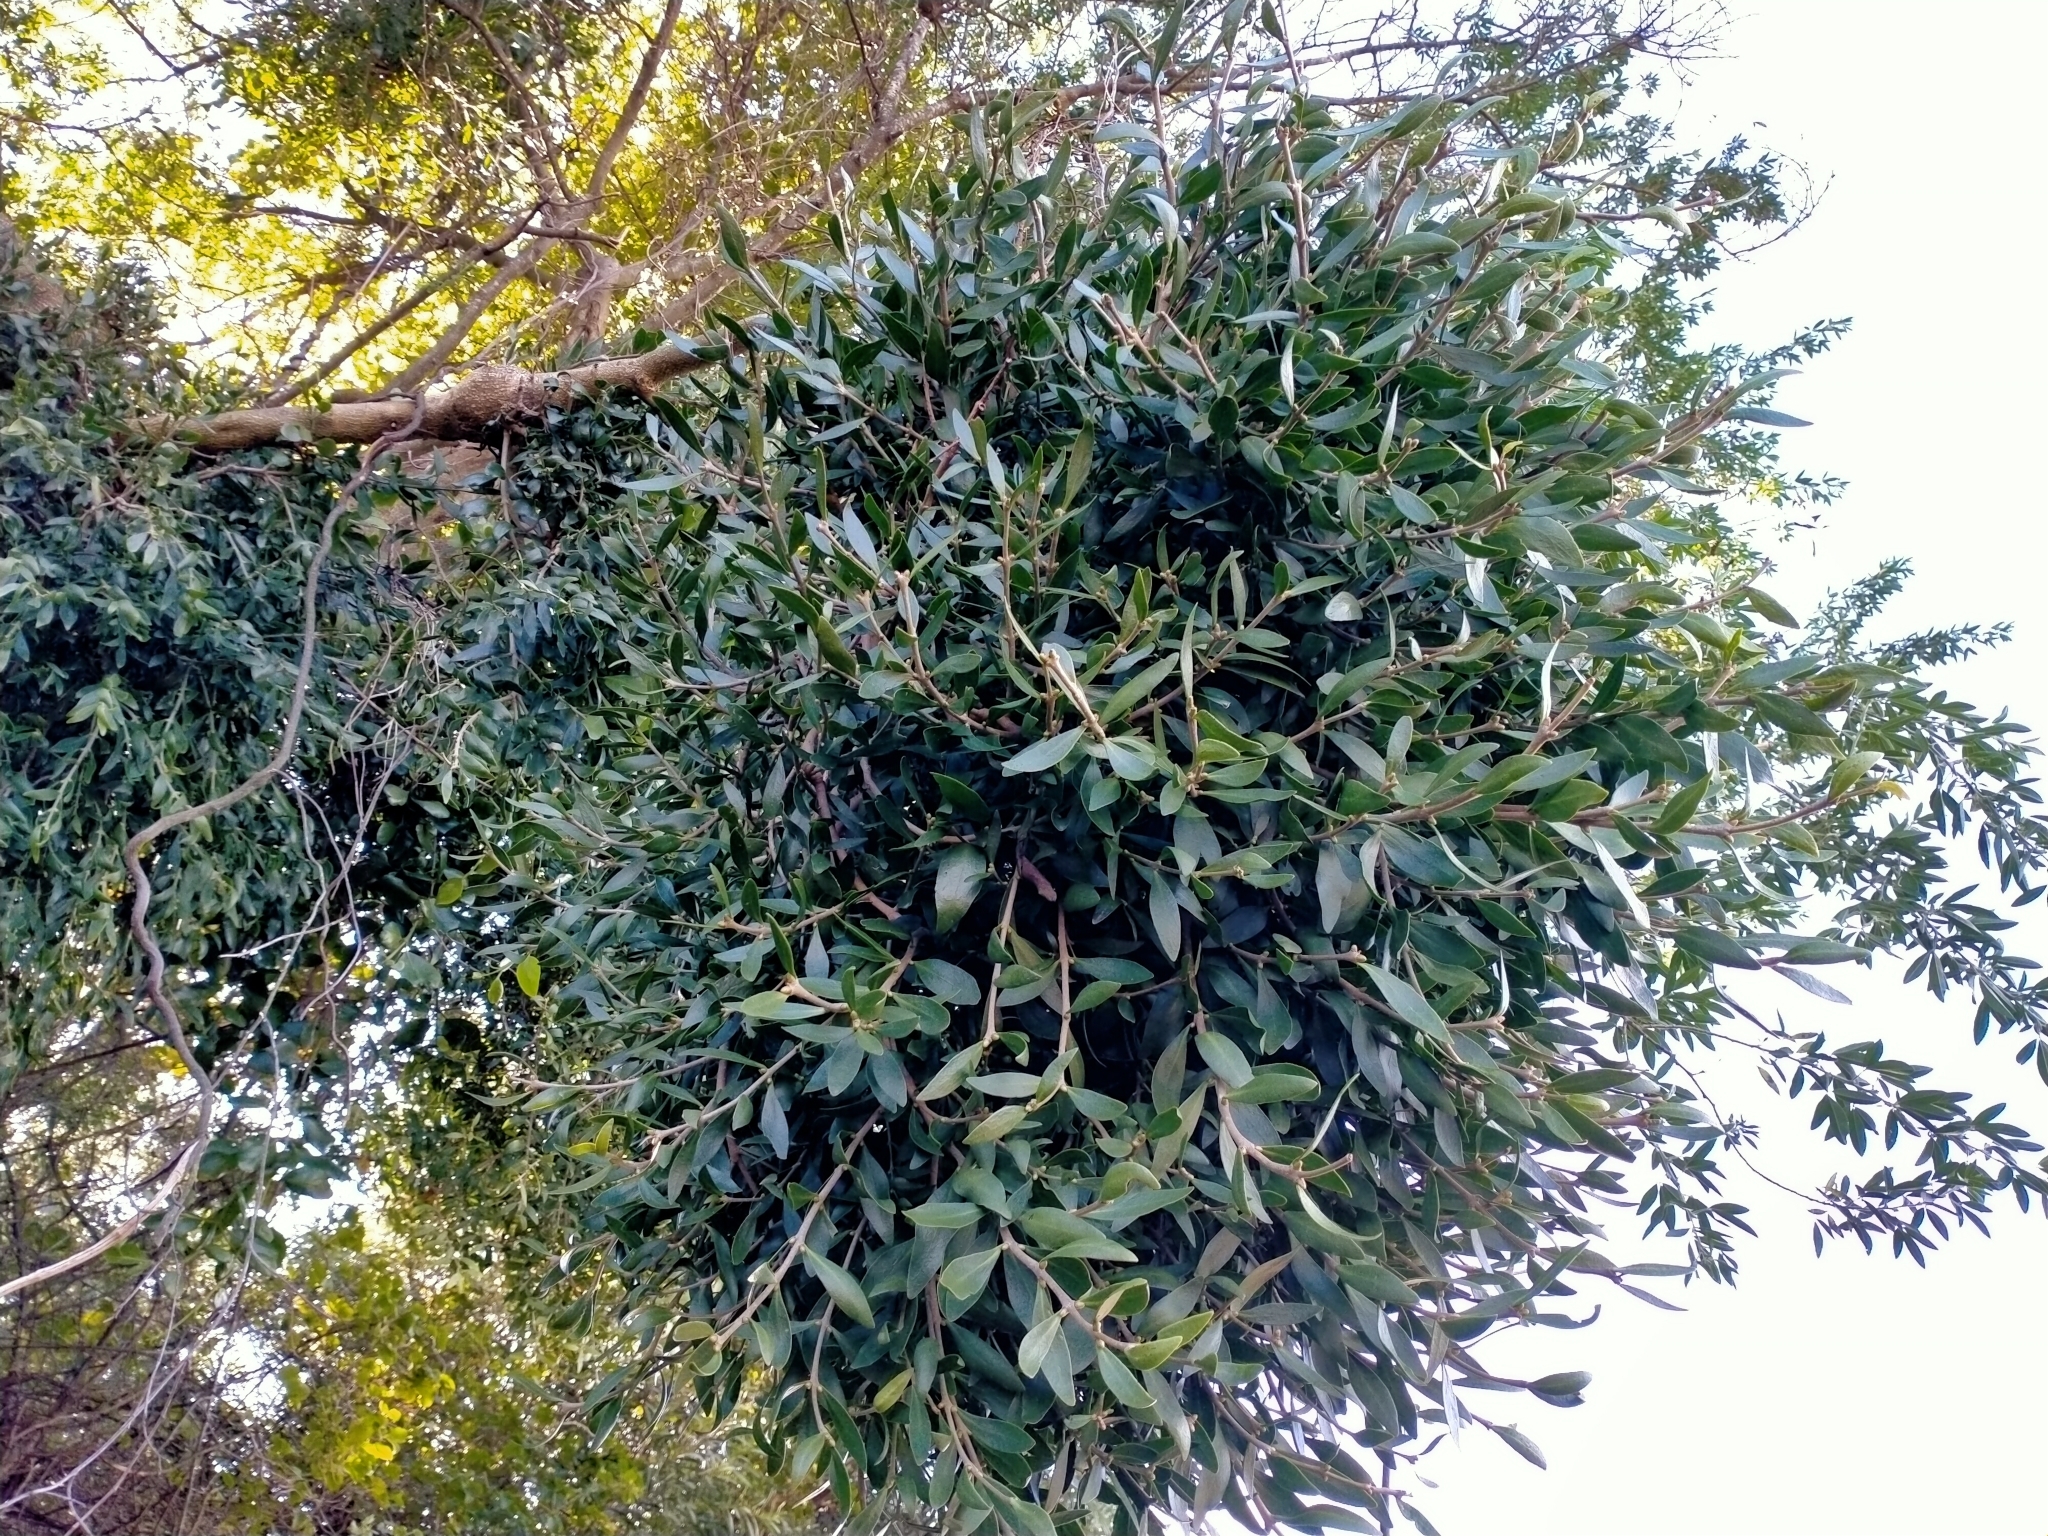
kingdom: Plantae
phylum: Tracheophyta
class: Magnoliopsida
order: Santalales
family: Loranthaceae
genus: Tupeia
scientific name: Tupeia antarctica
